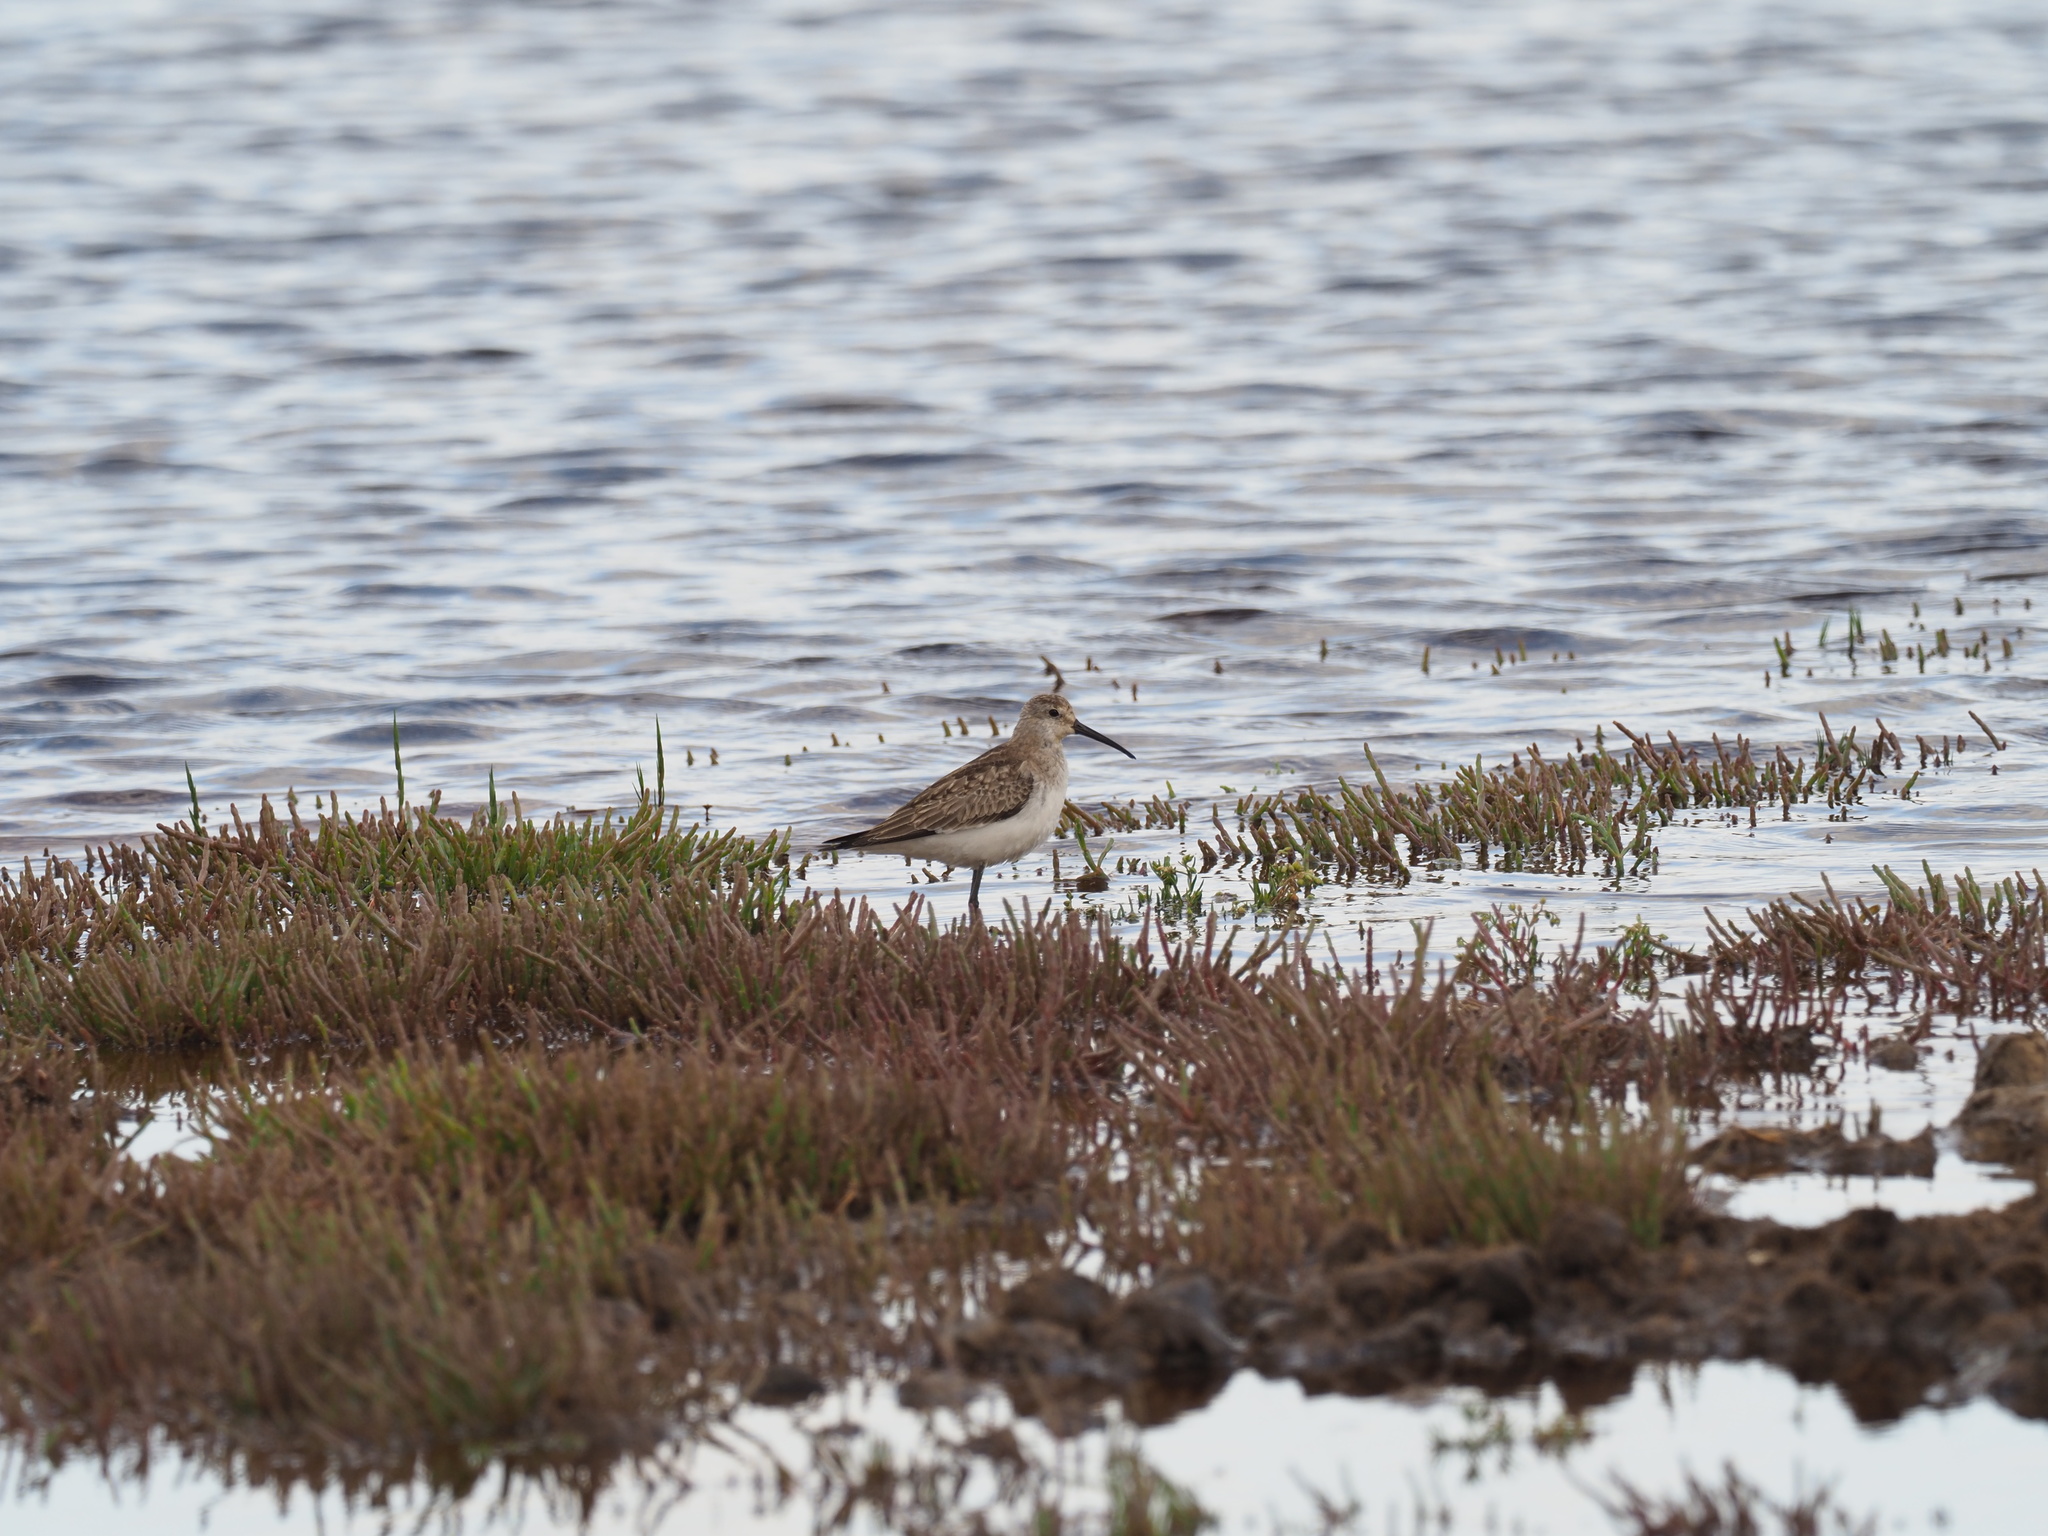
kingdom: Animalia
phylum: Chordata
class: Aves
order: Charadriiformes
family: Scolopacidae
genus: Calidris
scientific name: Calidris ferruginea
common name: Curlew sandpiper
